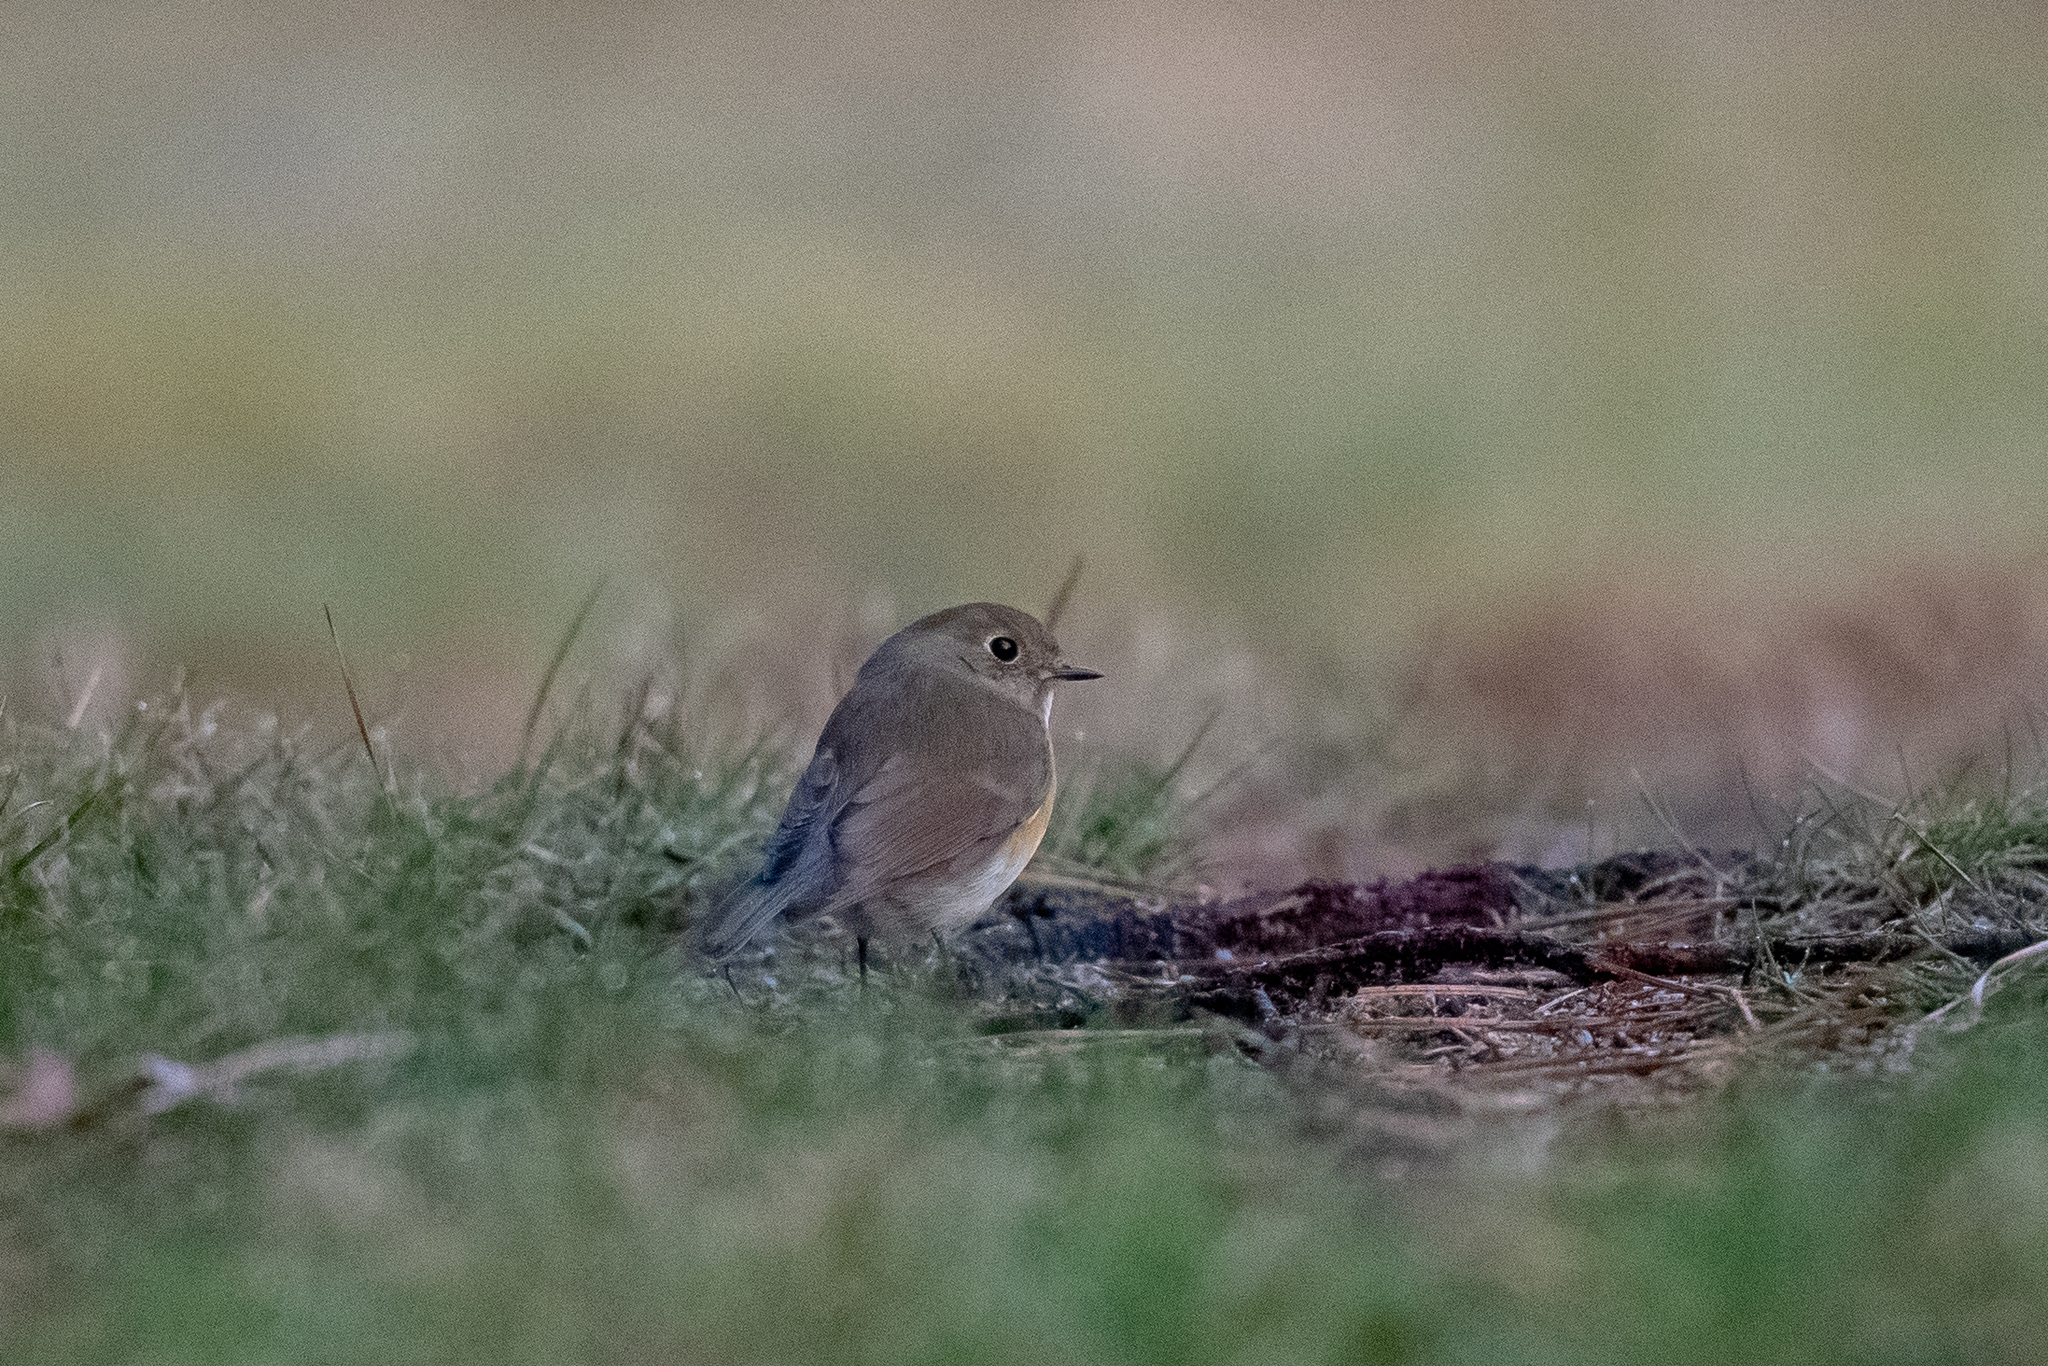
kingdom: Animalia
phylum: Chordata
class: Aves
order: Passeriformes
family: Muscicapidae
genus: Tarsiger
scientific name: Tarsiger cyanurus
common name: Red-flanked bluetail
